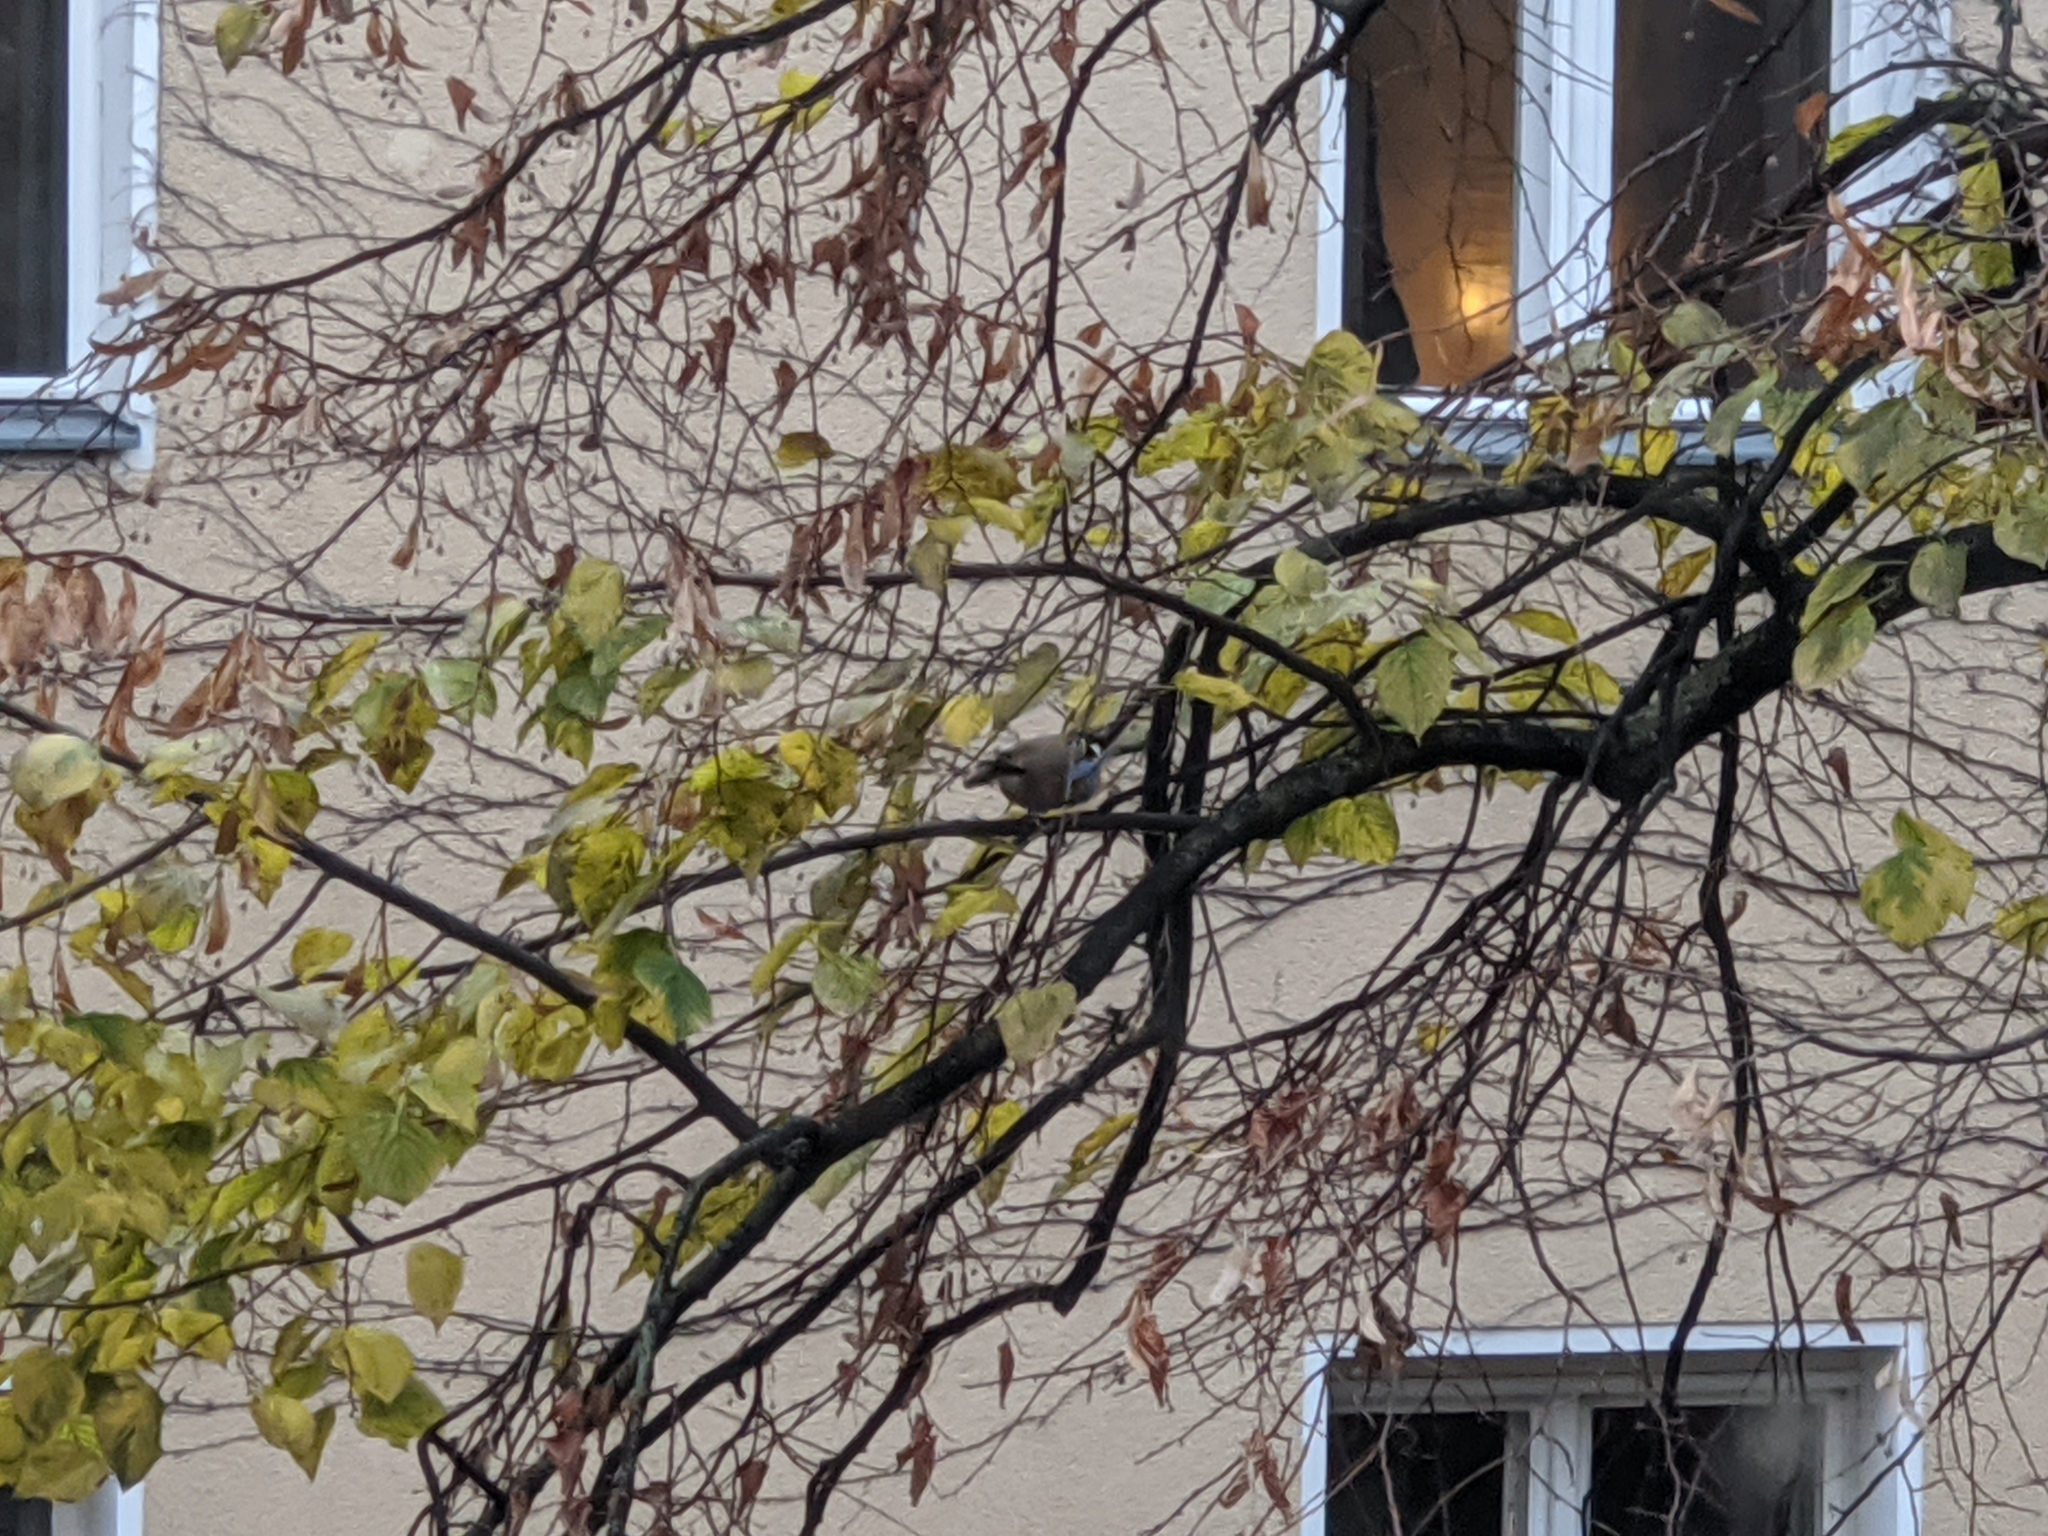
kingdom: Animalia
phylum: Chordata
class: Aves
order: Passeriformes
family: Corvidae
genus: Garrulus
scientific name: Garrulus glandarius
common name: Eurasian jay
